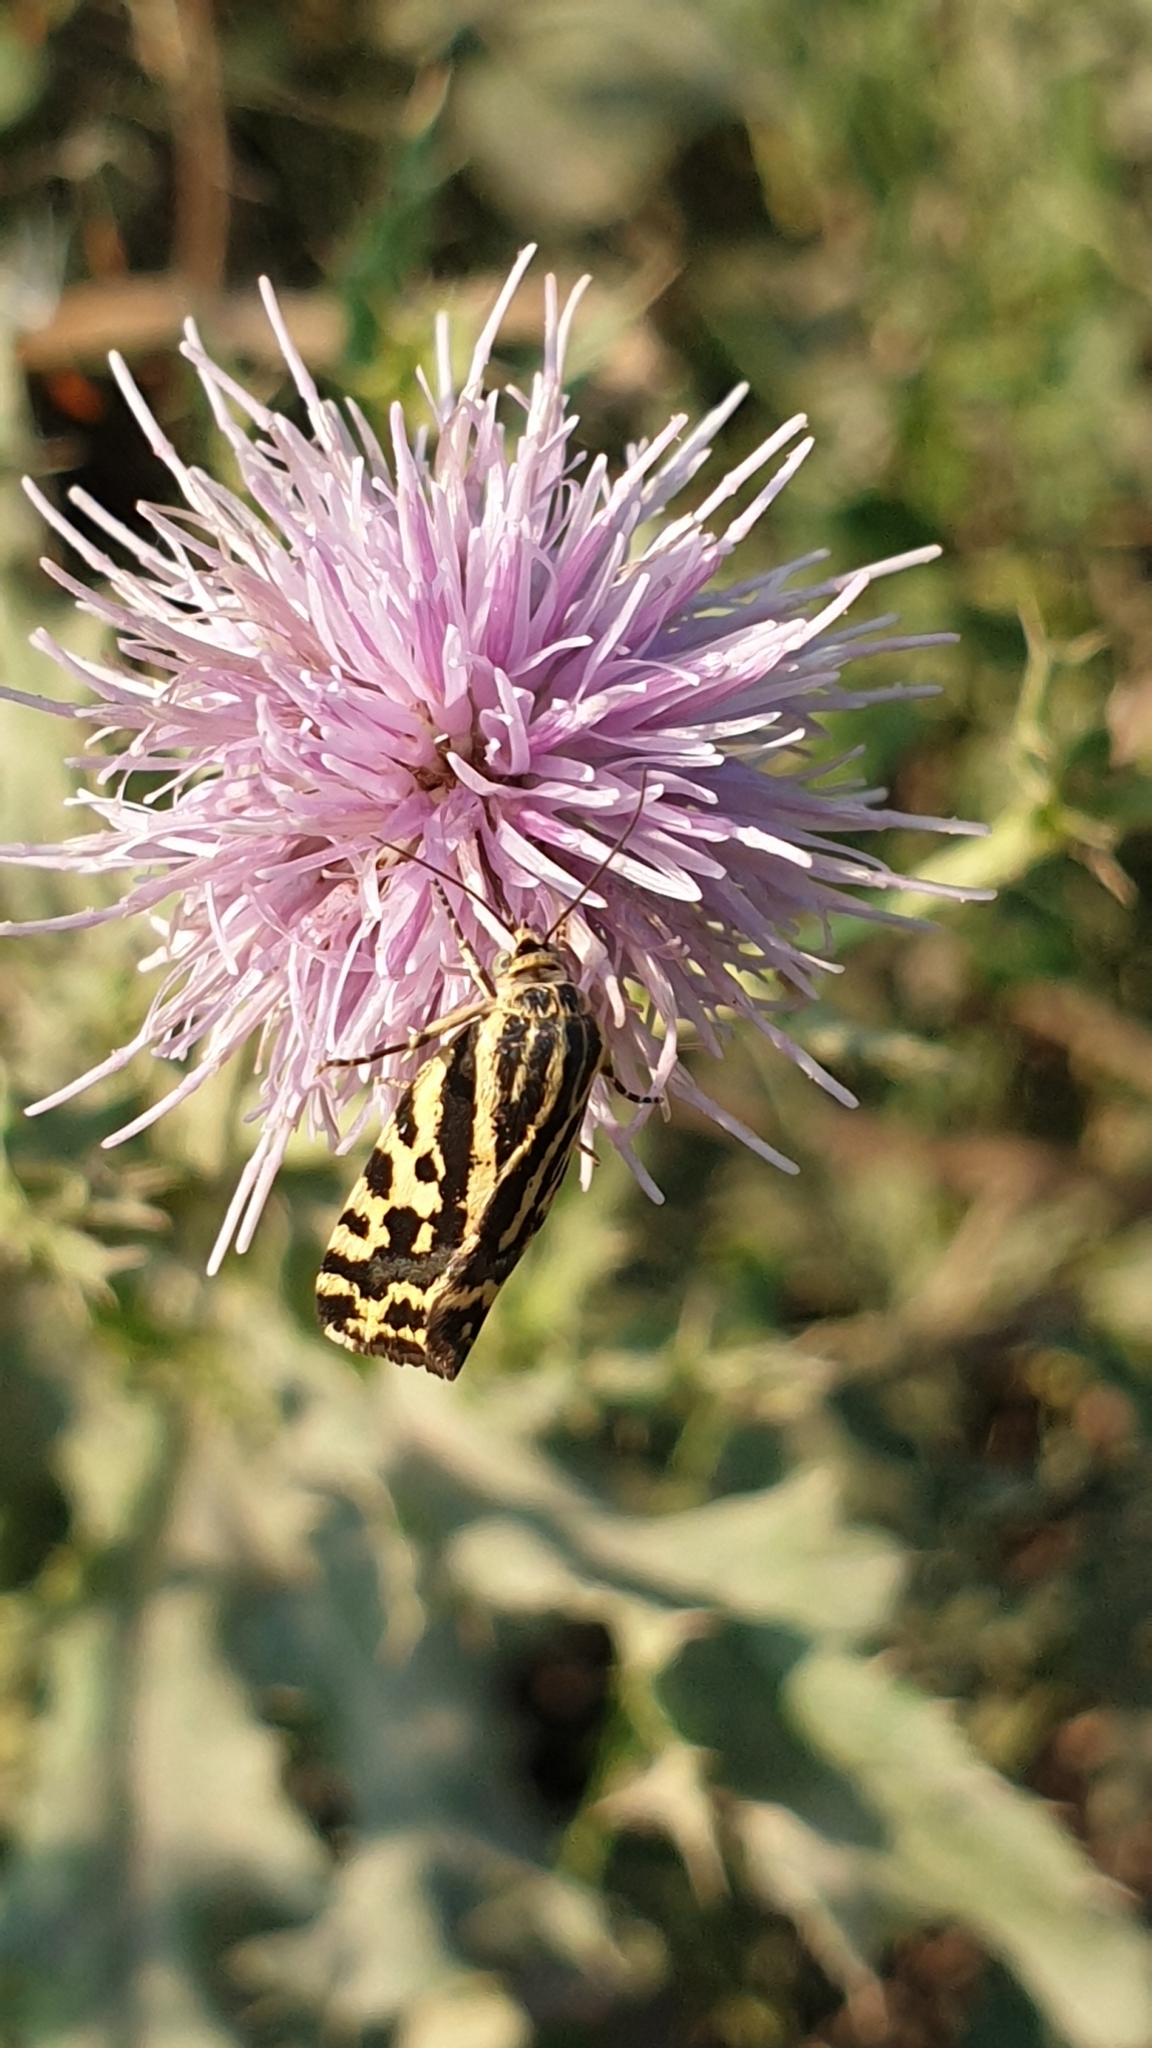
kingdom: Animalia
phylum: Arthropoda
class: Insecta
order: Lepidoptera
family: Noctuidae
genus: Acontia
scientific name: Acontia trabealis
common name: Spotted sulphur
